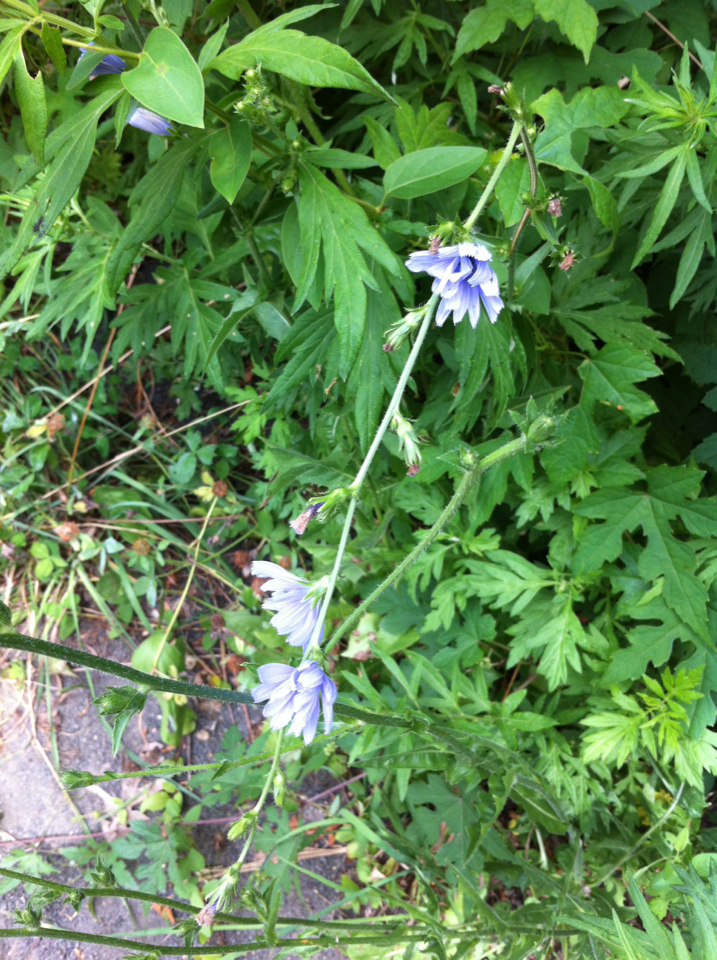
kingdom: Plantae
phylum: Tracheophyta
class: Magnoliopsida
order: Asterales
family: Asteraceae
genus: Cichorium
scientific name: Cichorium intybus
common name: Chicory
